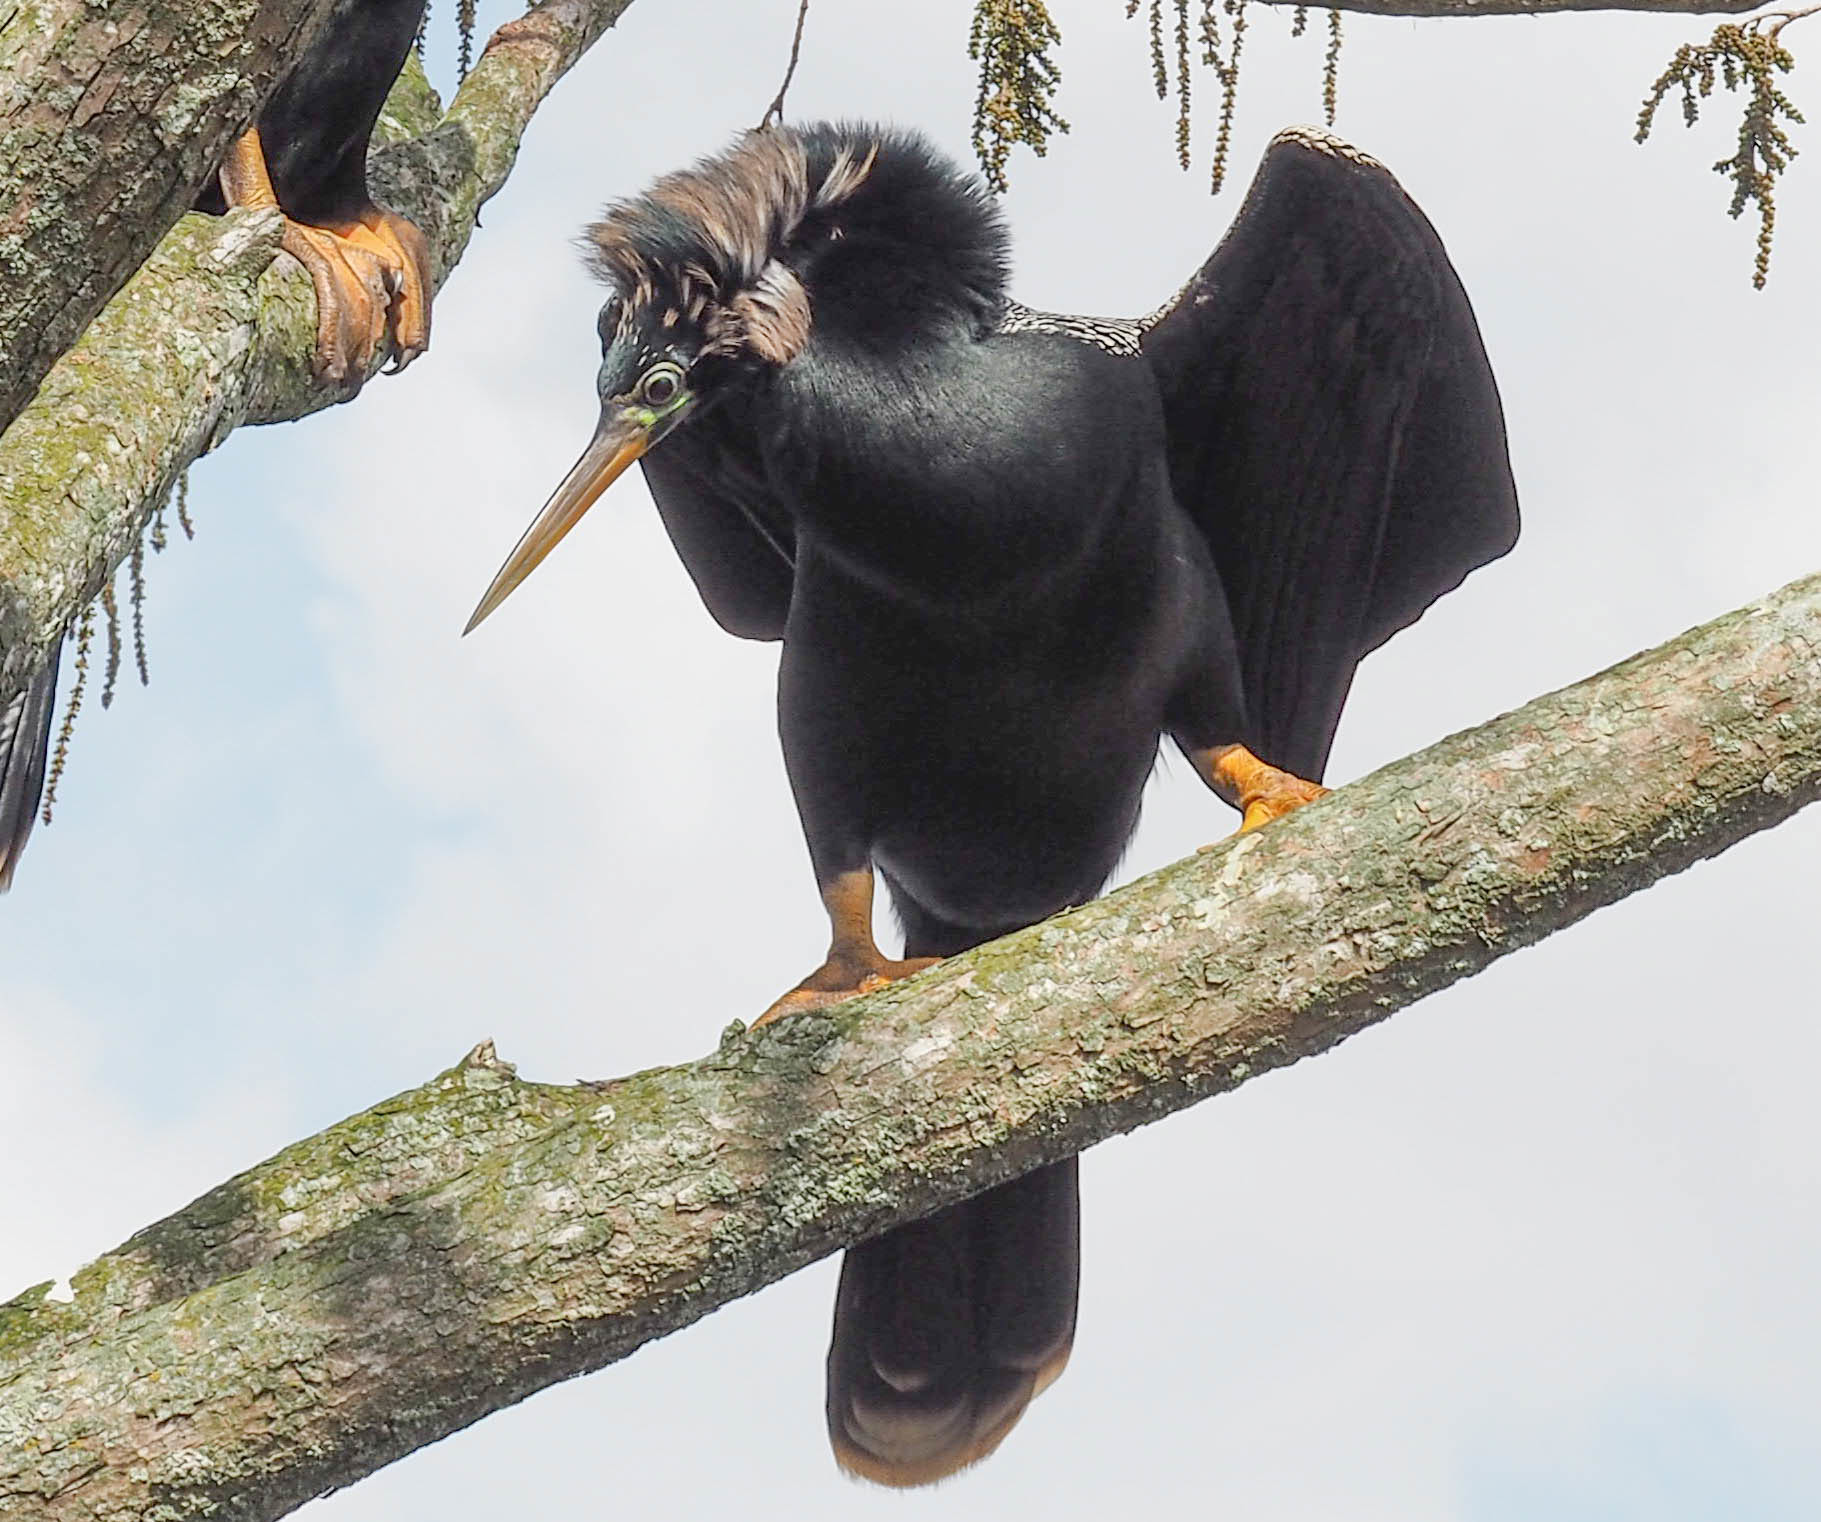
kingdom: Animalia
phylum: Chordata
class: Aves
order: Suliformes
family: Anhingidae
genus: Anhinga
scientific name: Anhinga anhinga
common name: Anhinga
